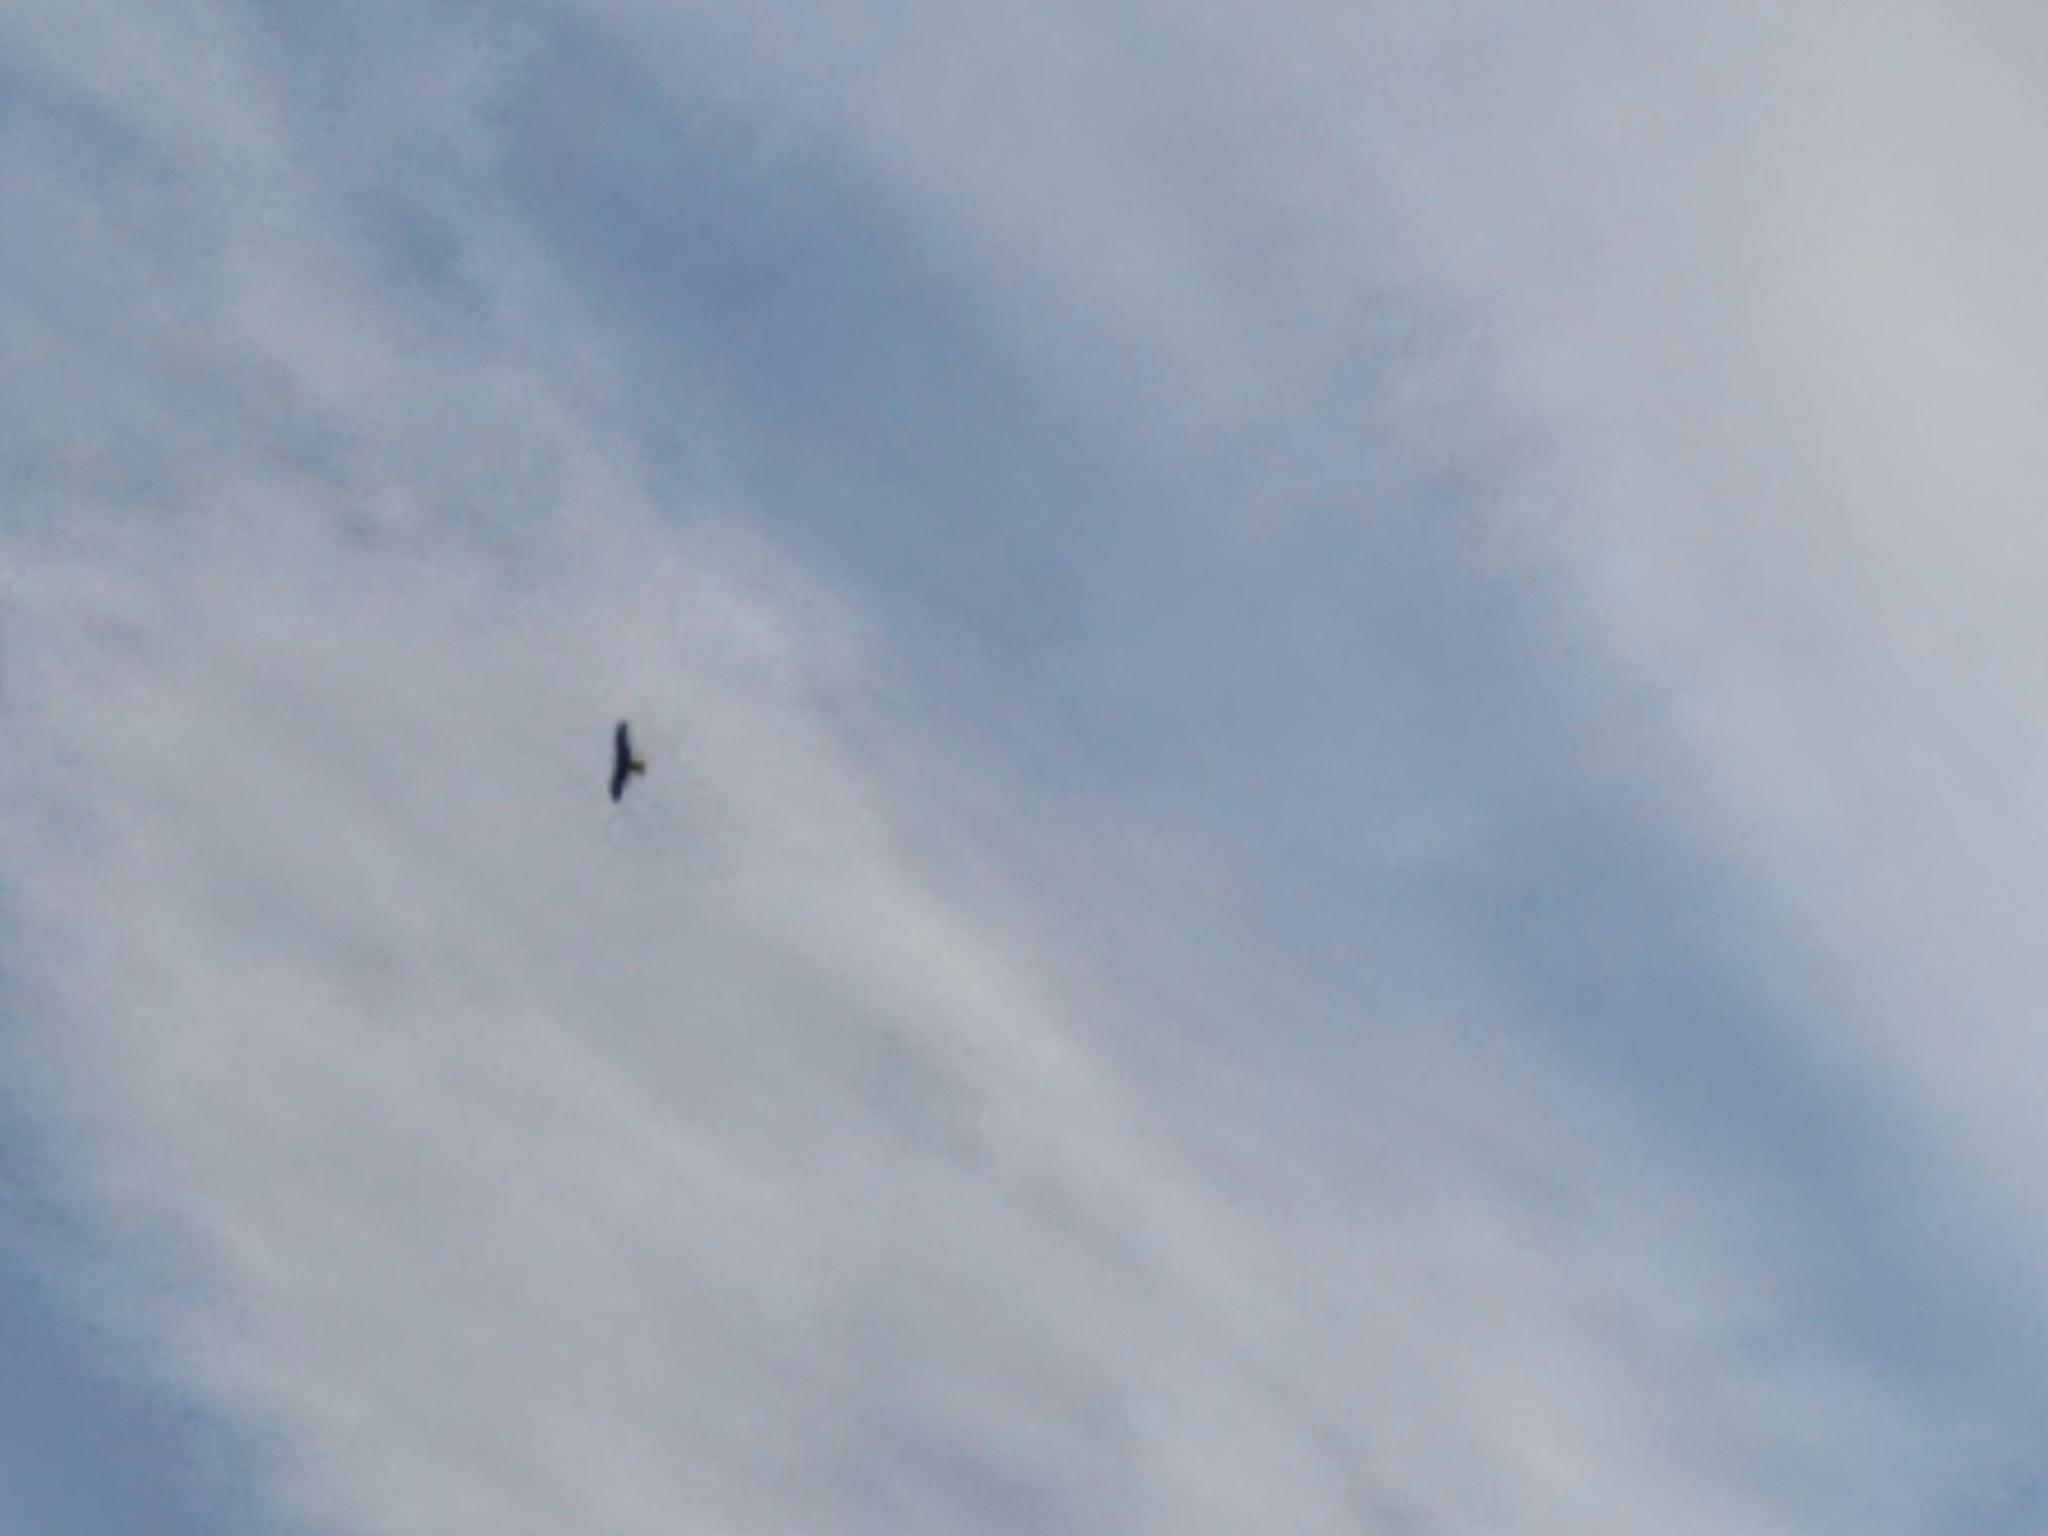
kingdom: Animalia
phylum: Chordata
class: Aves
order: Accipitriformes
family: Accipitridae
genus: Milvus
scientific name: Milvus milvus
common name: Red kite
